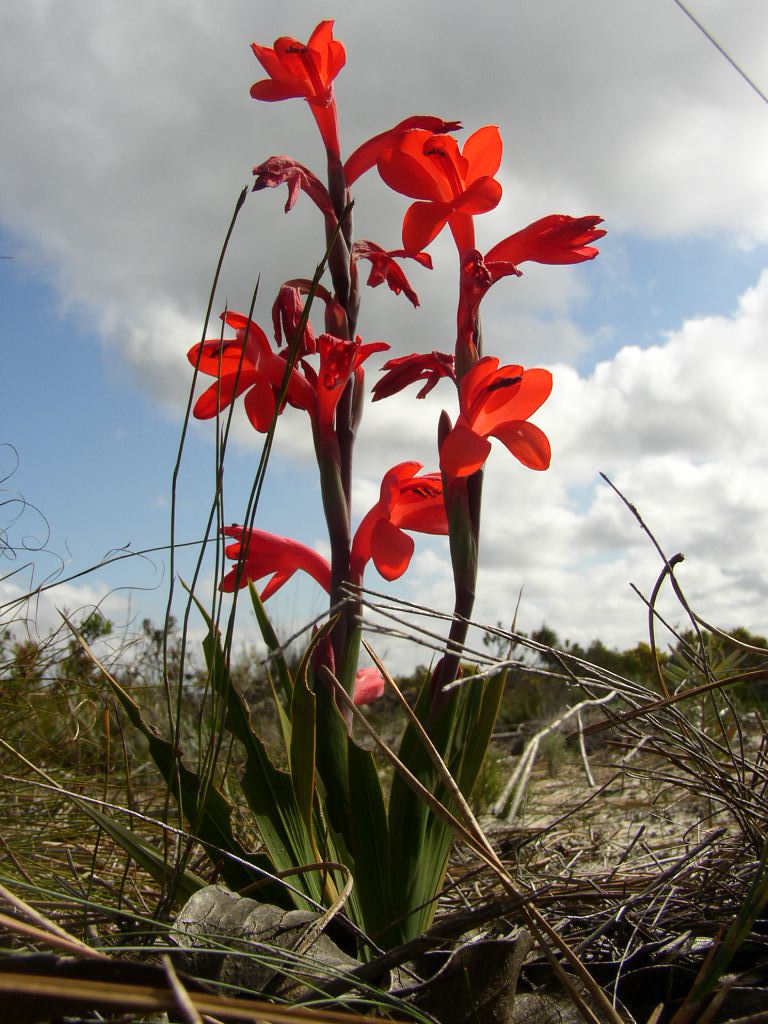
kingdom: Plantae
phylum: Tracheophyta
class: Liliopsida
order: Asparagales
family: Iridaceae
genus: Watsonia
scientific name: Watsonia spectabilis
